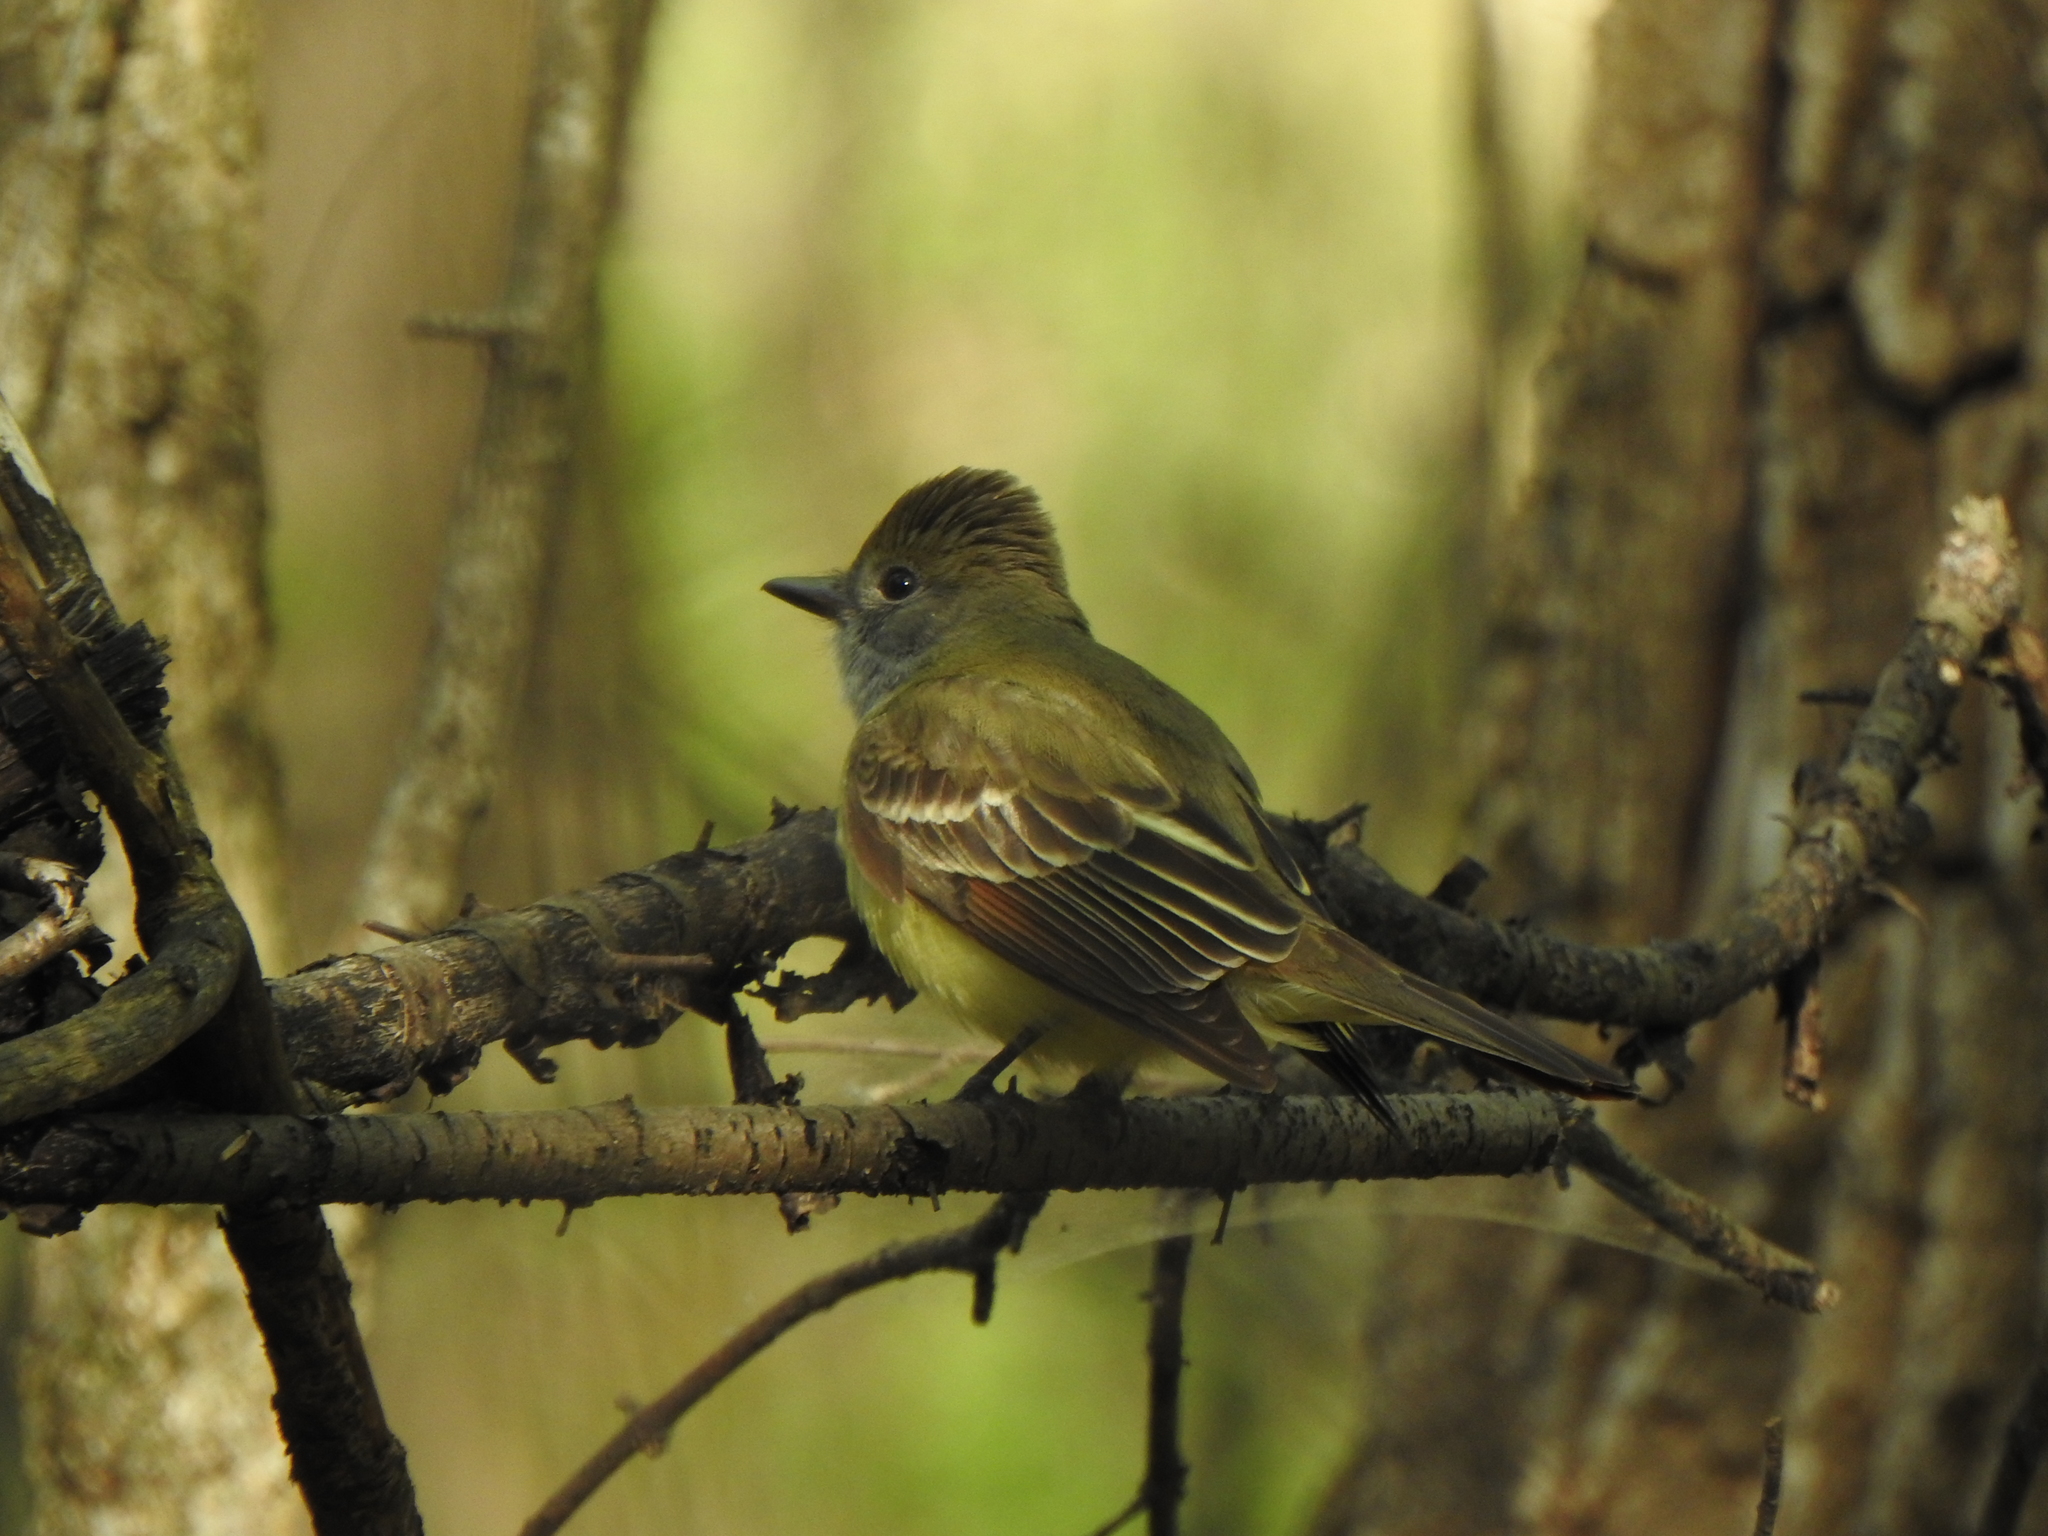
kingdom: Animalia
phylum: Chordata
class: Aves
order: Passeriformes
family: Tyrannidae
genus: Myiarchus
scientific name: Myiarchus crinitus
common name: Great crested flycatcher
